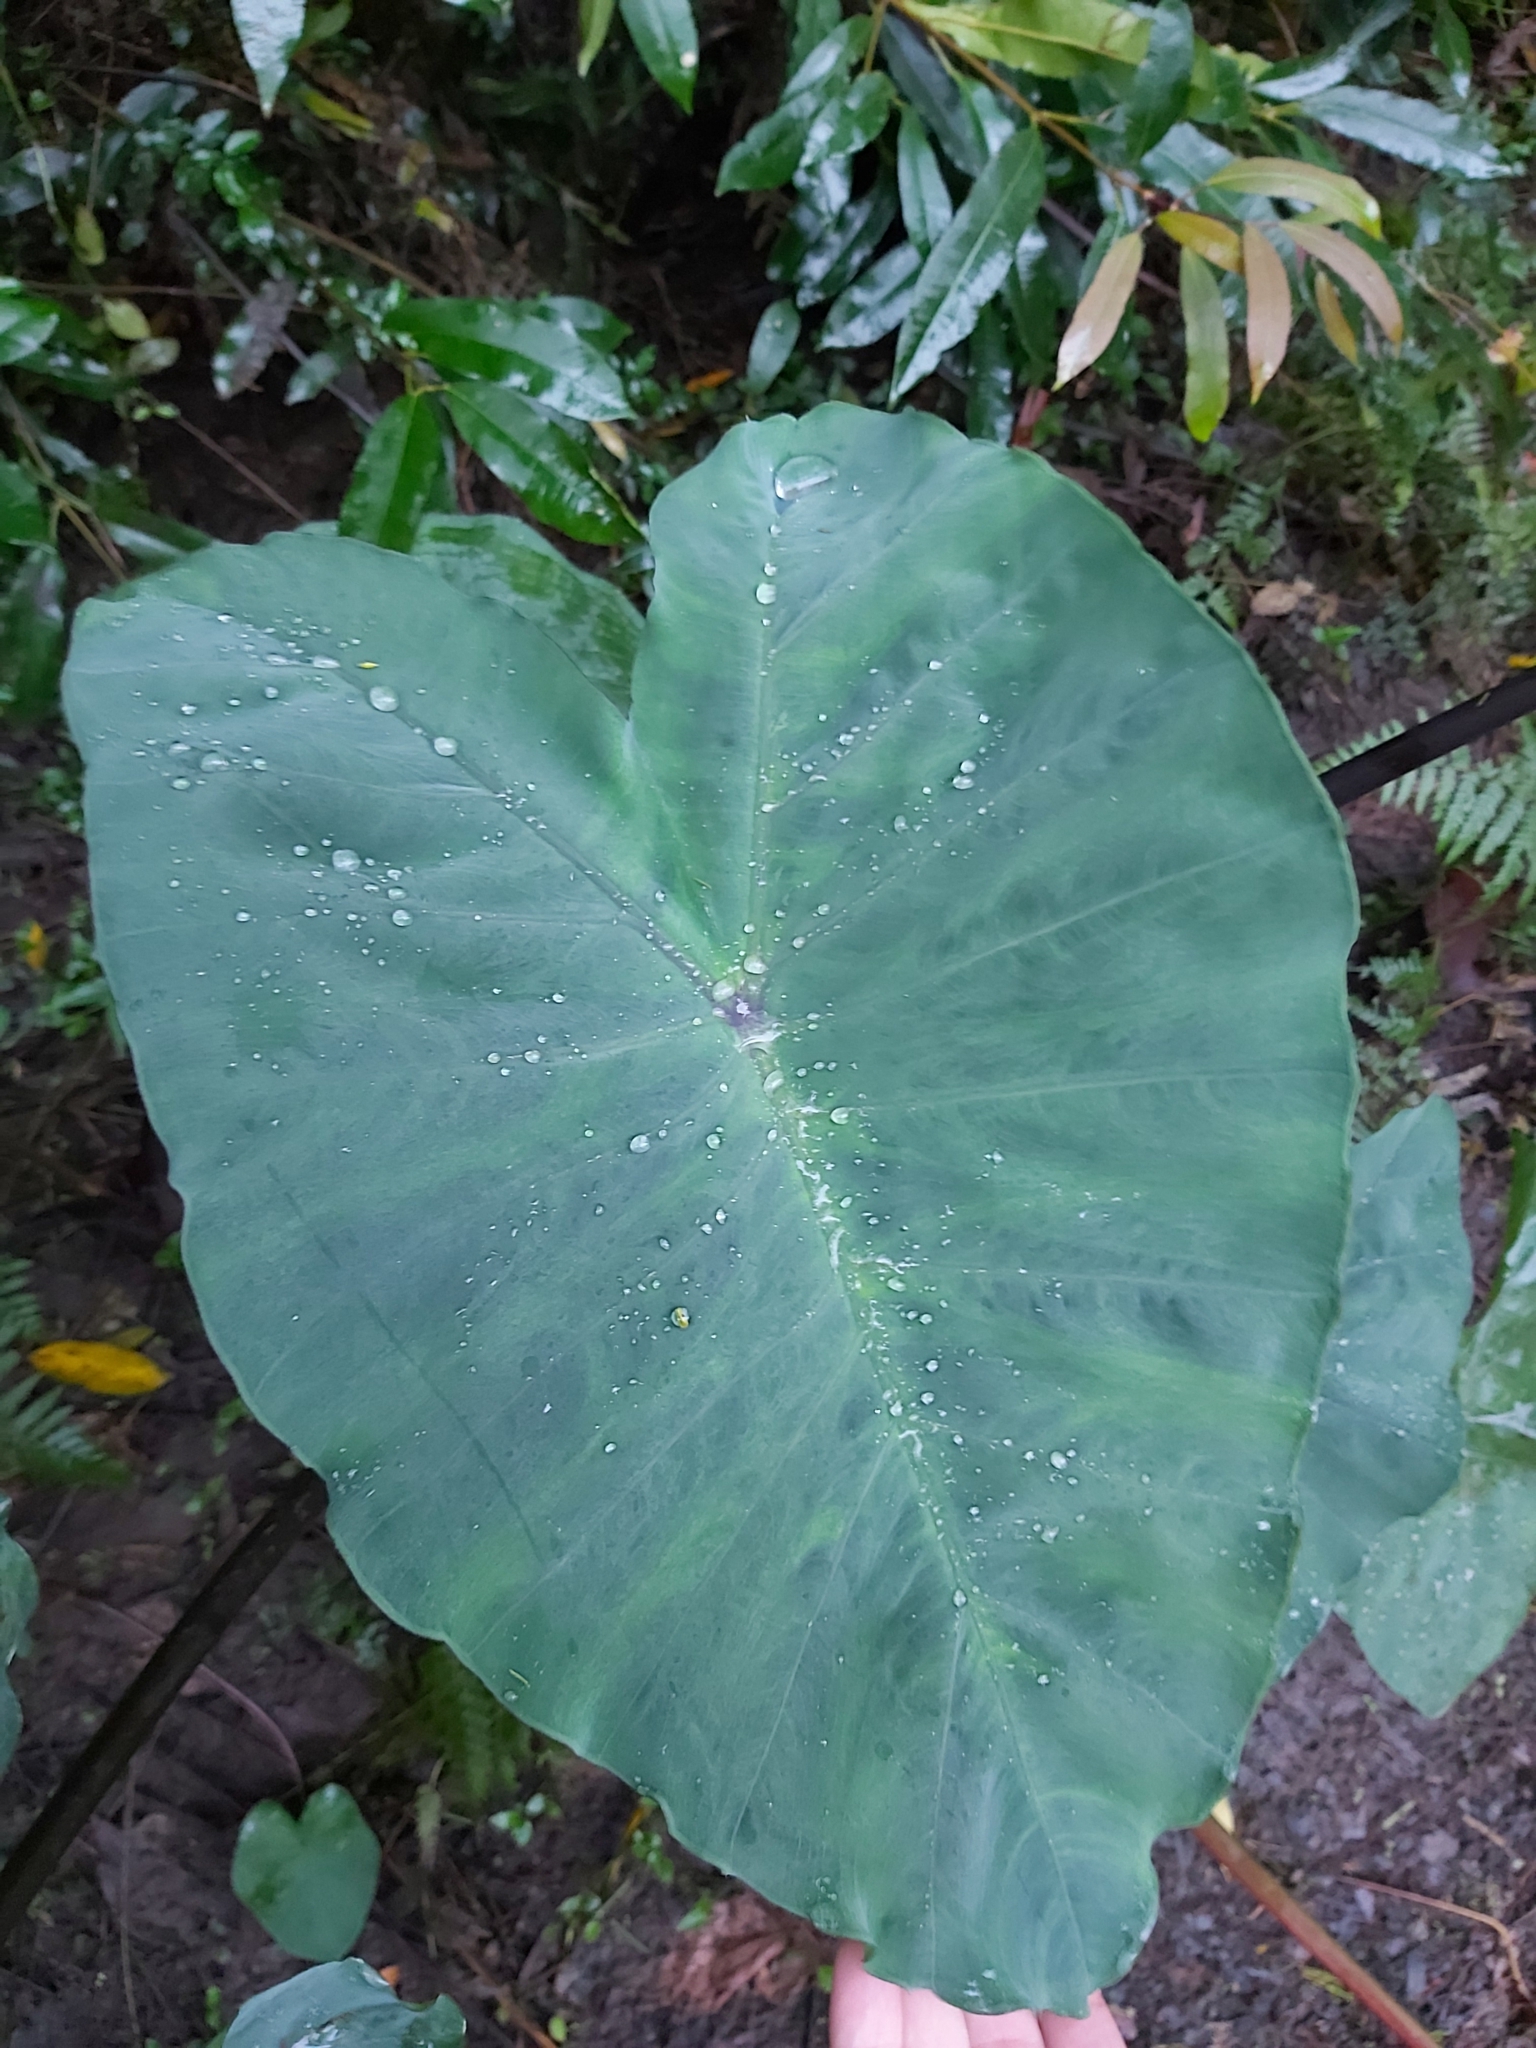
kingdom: Plantae
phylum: Tracheophyta
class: Liliopsida
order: Alismatales
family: Araceae
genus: Colocasia
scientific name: Colocasia esculenta
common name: Taro
